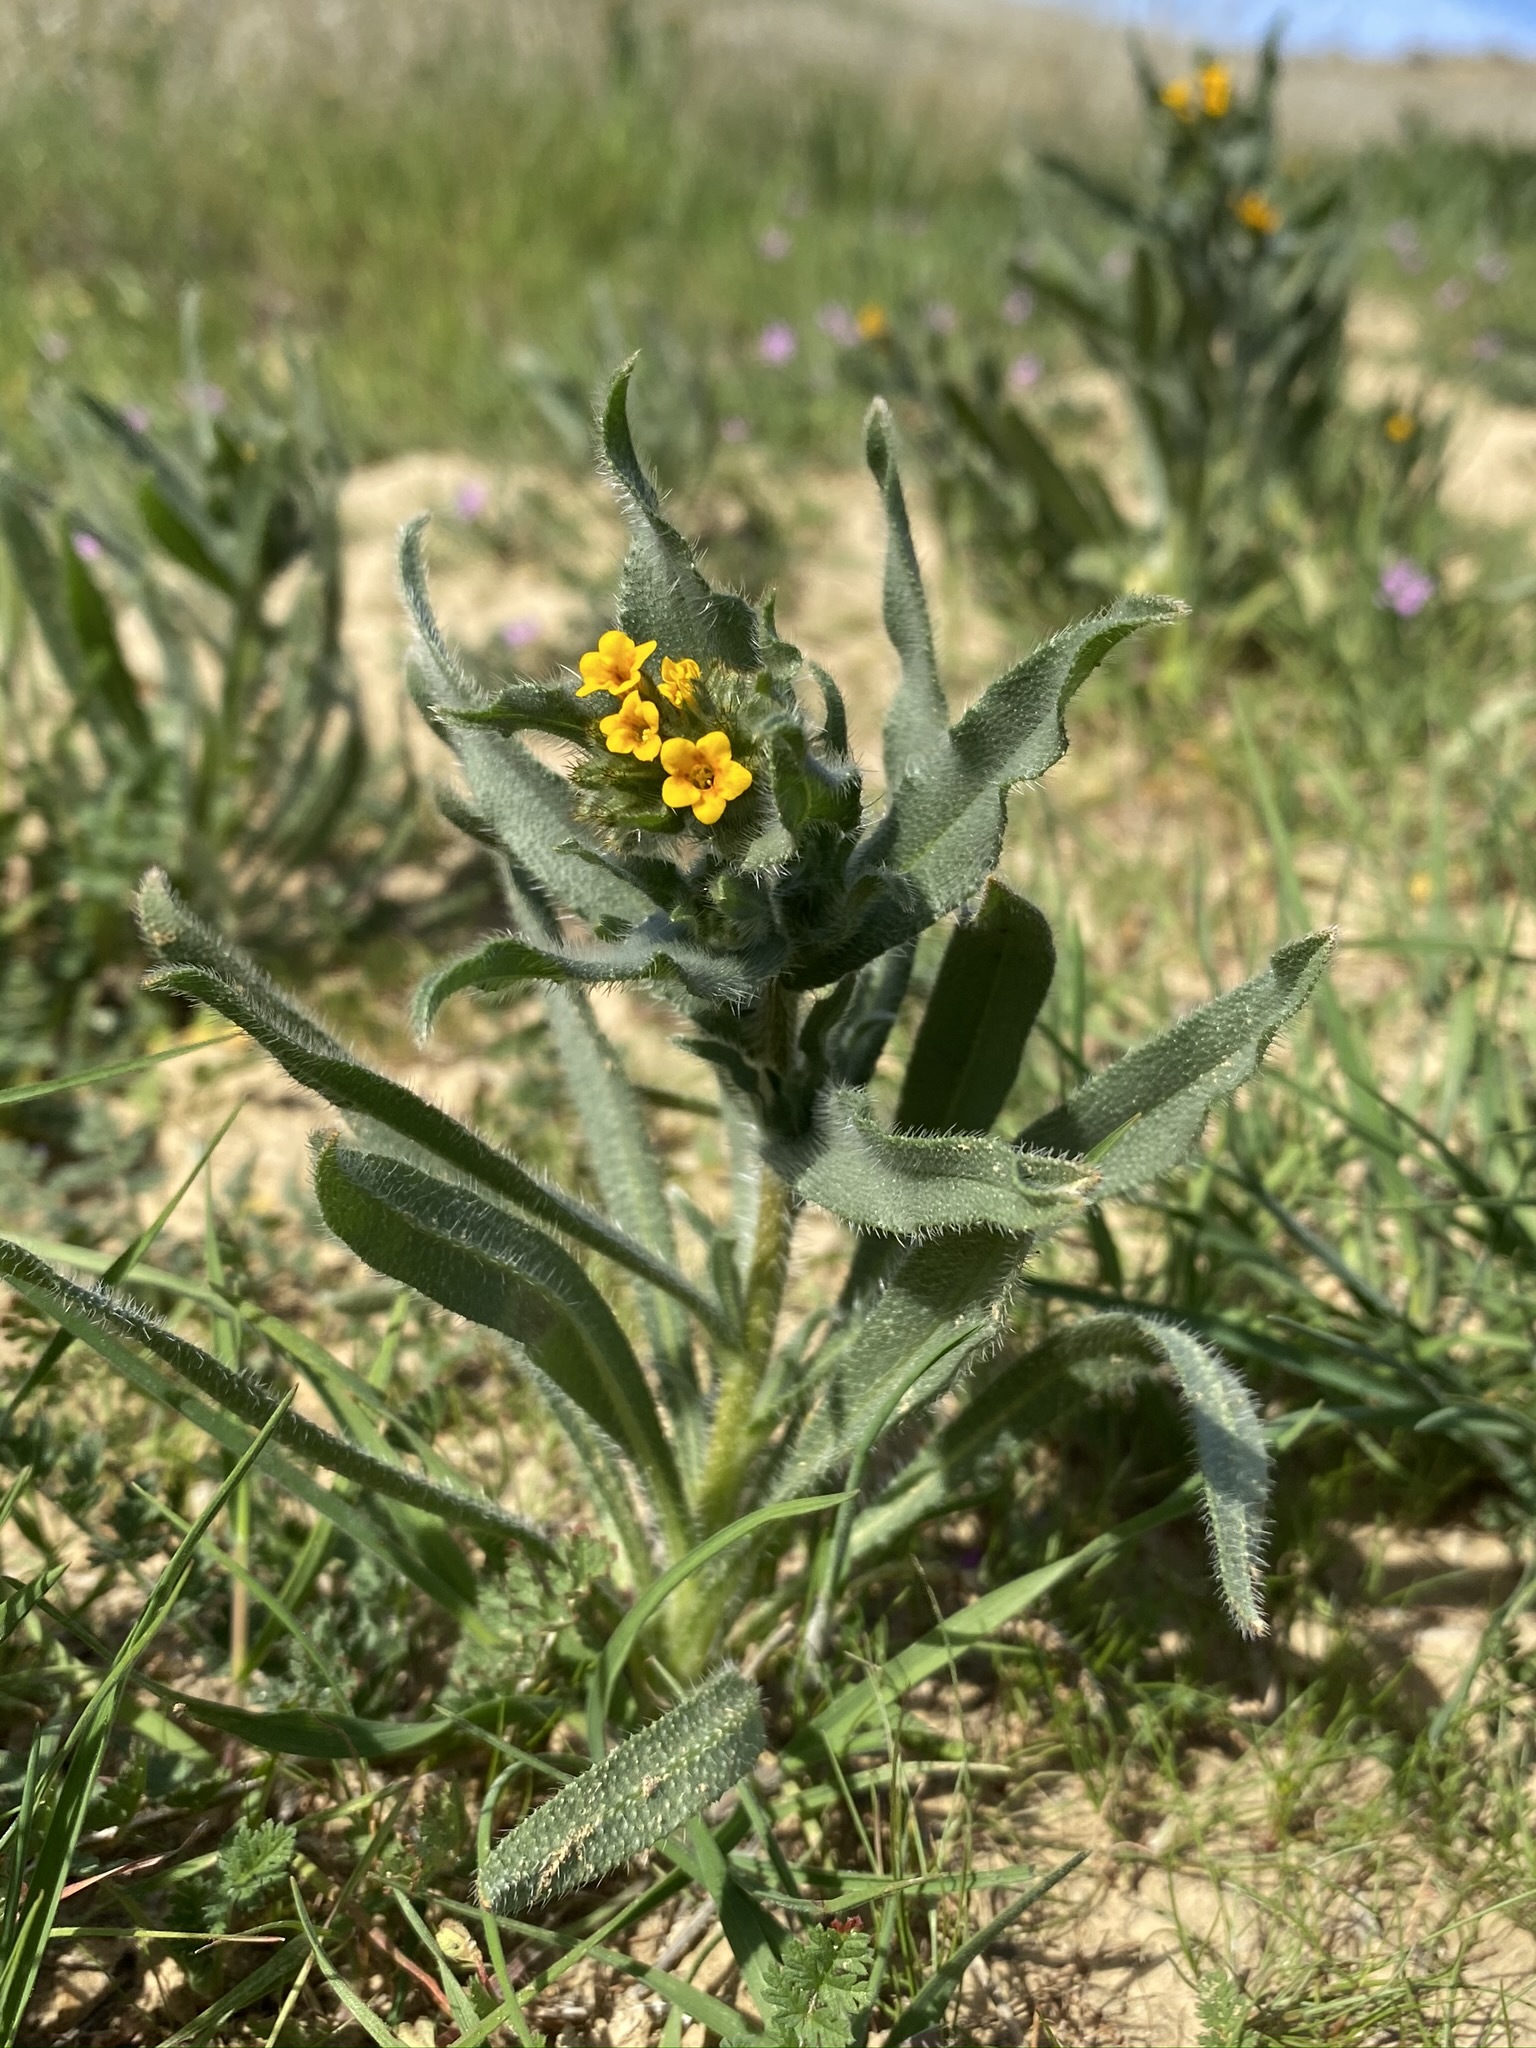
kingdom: Plantae
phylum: Tracheophyta
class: Magnoliopsida
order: Boraginales
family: Boraginaceae
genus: Amsinckia
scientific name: Amsinckia tessellata
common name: Tessellate fiddleneck
